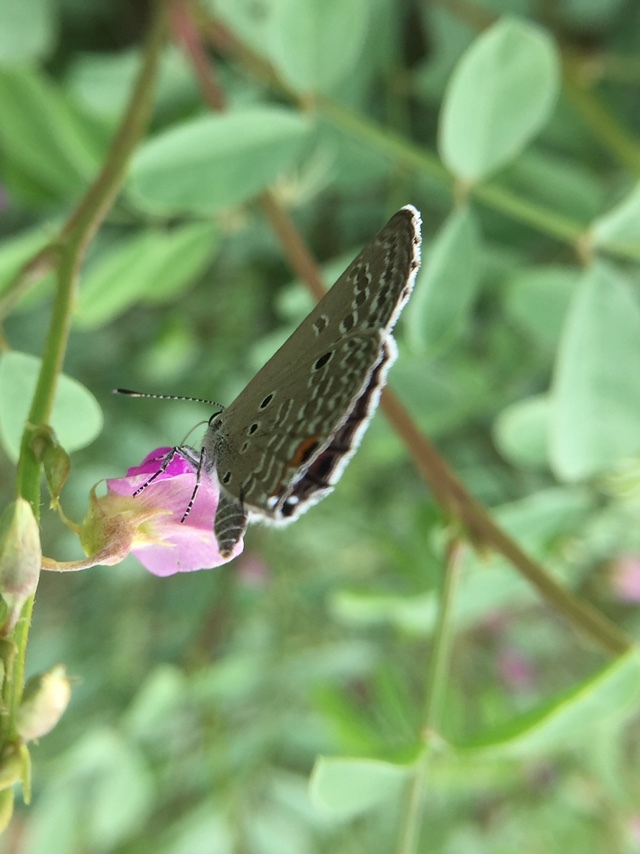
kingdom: Animalia
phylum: Arthropoda
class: Insecta
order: Lepidoptera
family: Lycaenidae
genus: Luthrodes
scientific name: Luthrodes pandava
